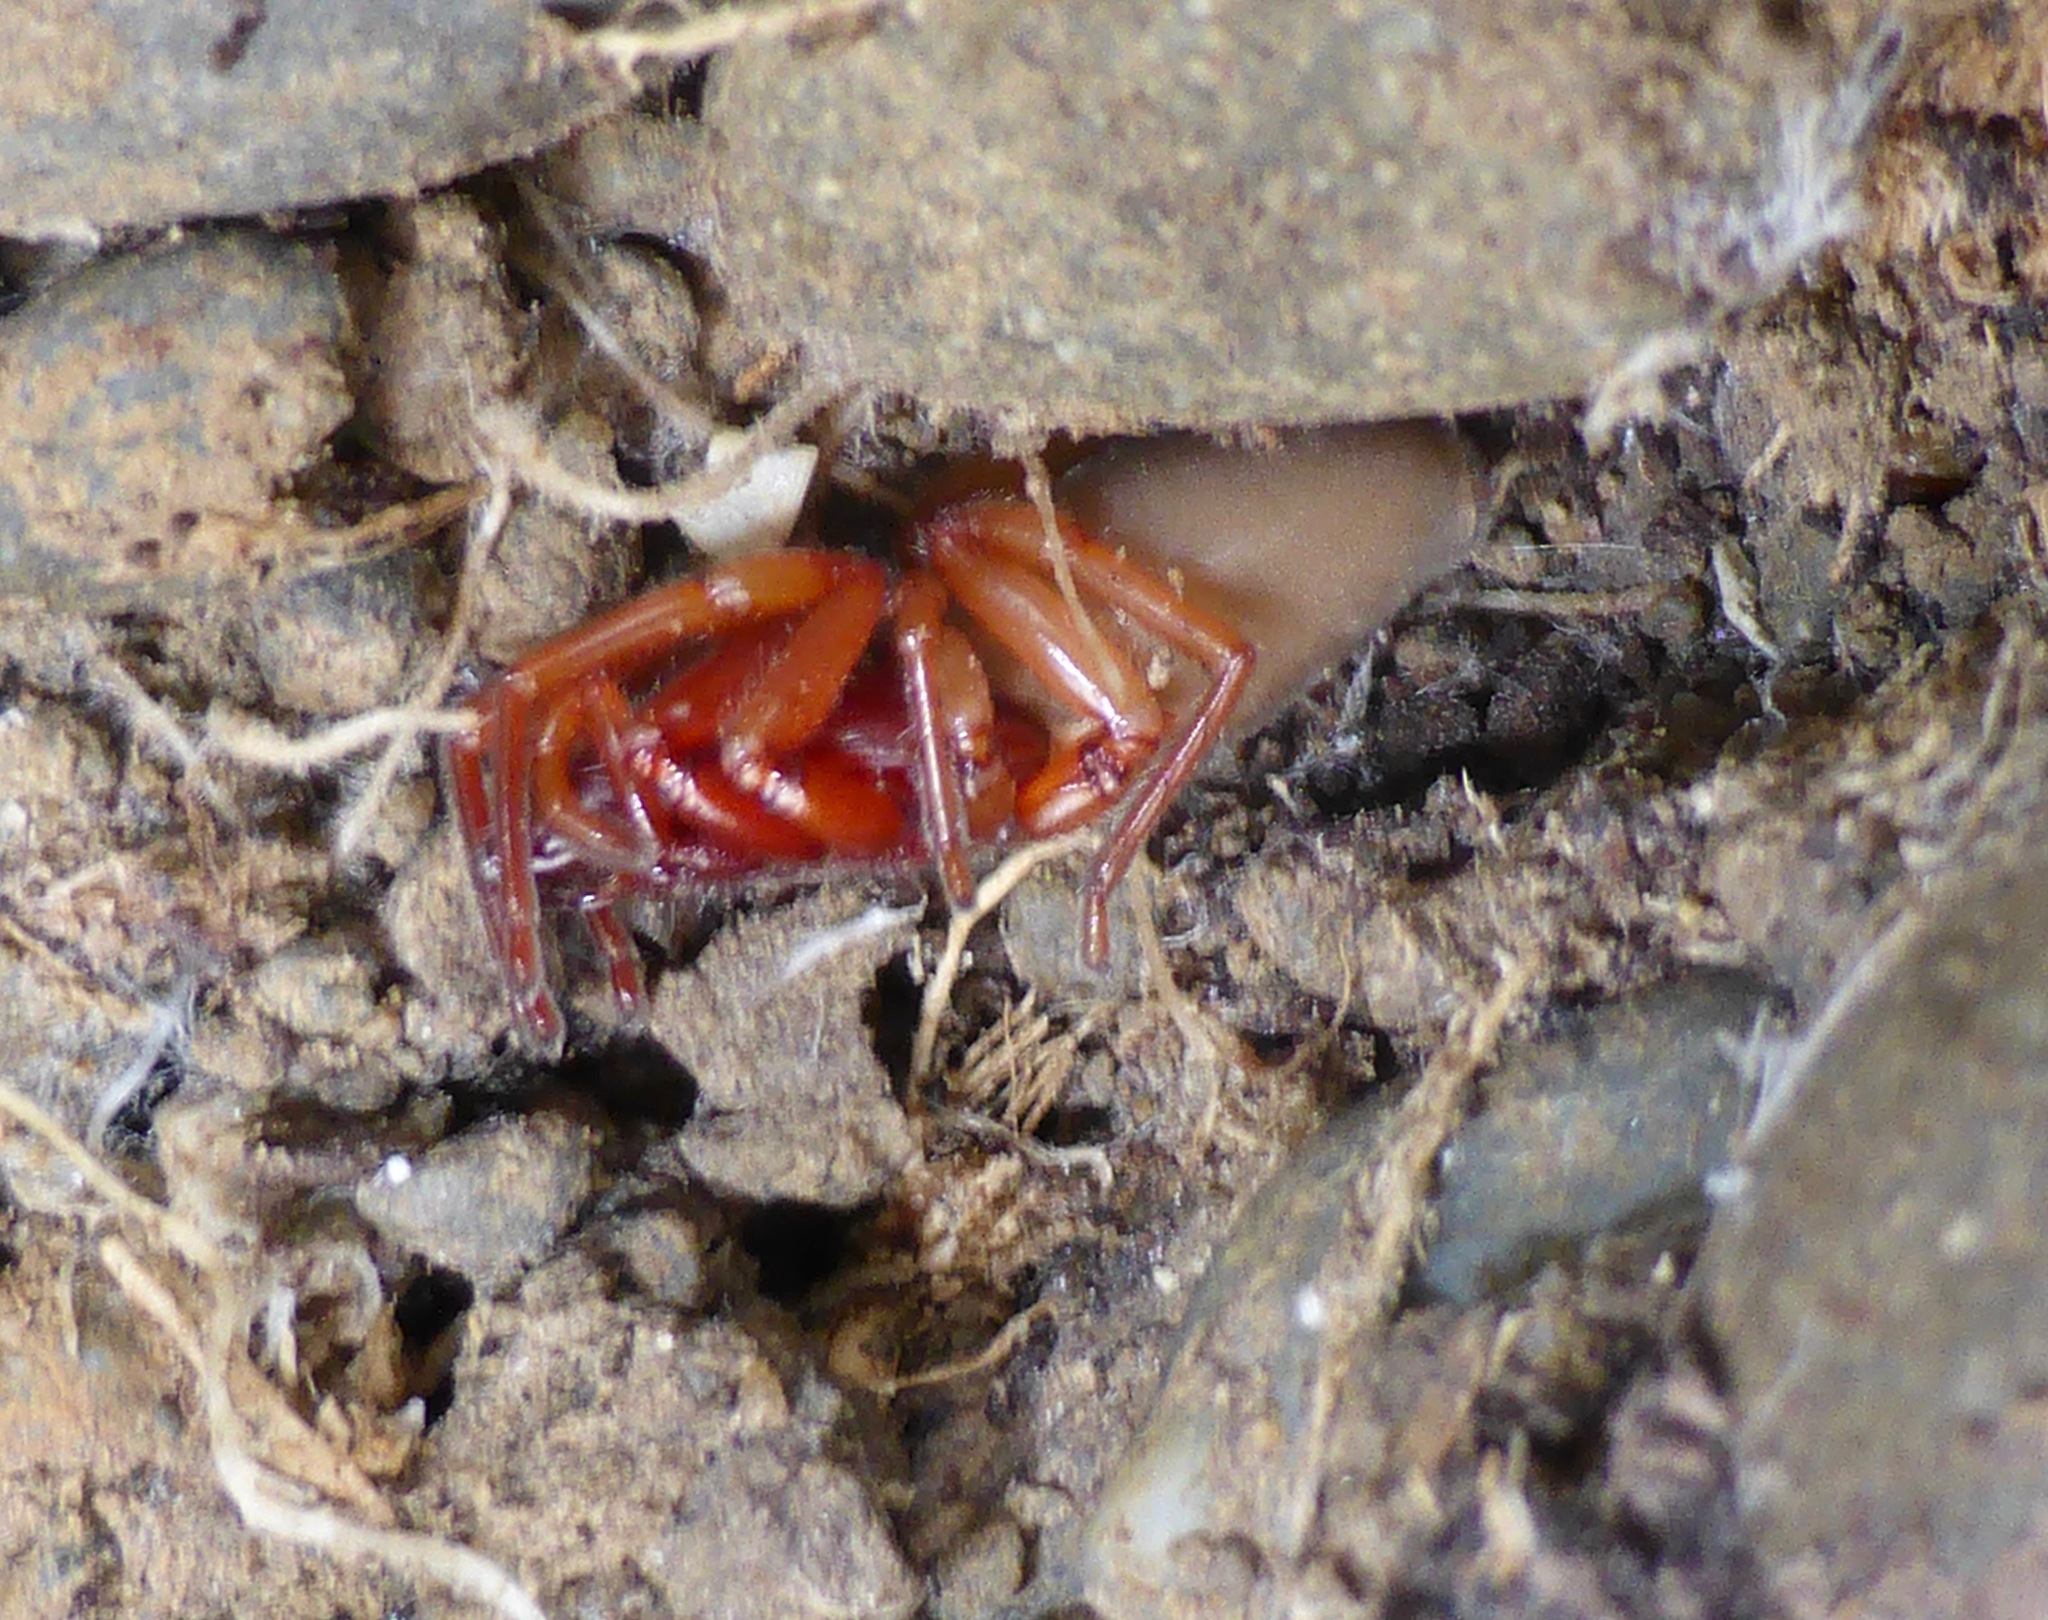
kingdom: Animalia
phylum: Arthropoda
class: Arachnida
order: Araneae
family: Dysderidae
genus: Dysdera
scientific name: Dysdera crocata
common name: Woodlouse spider
